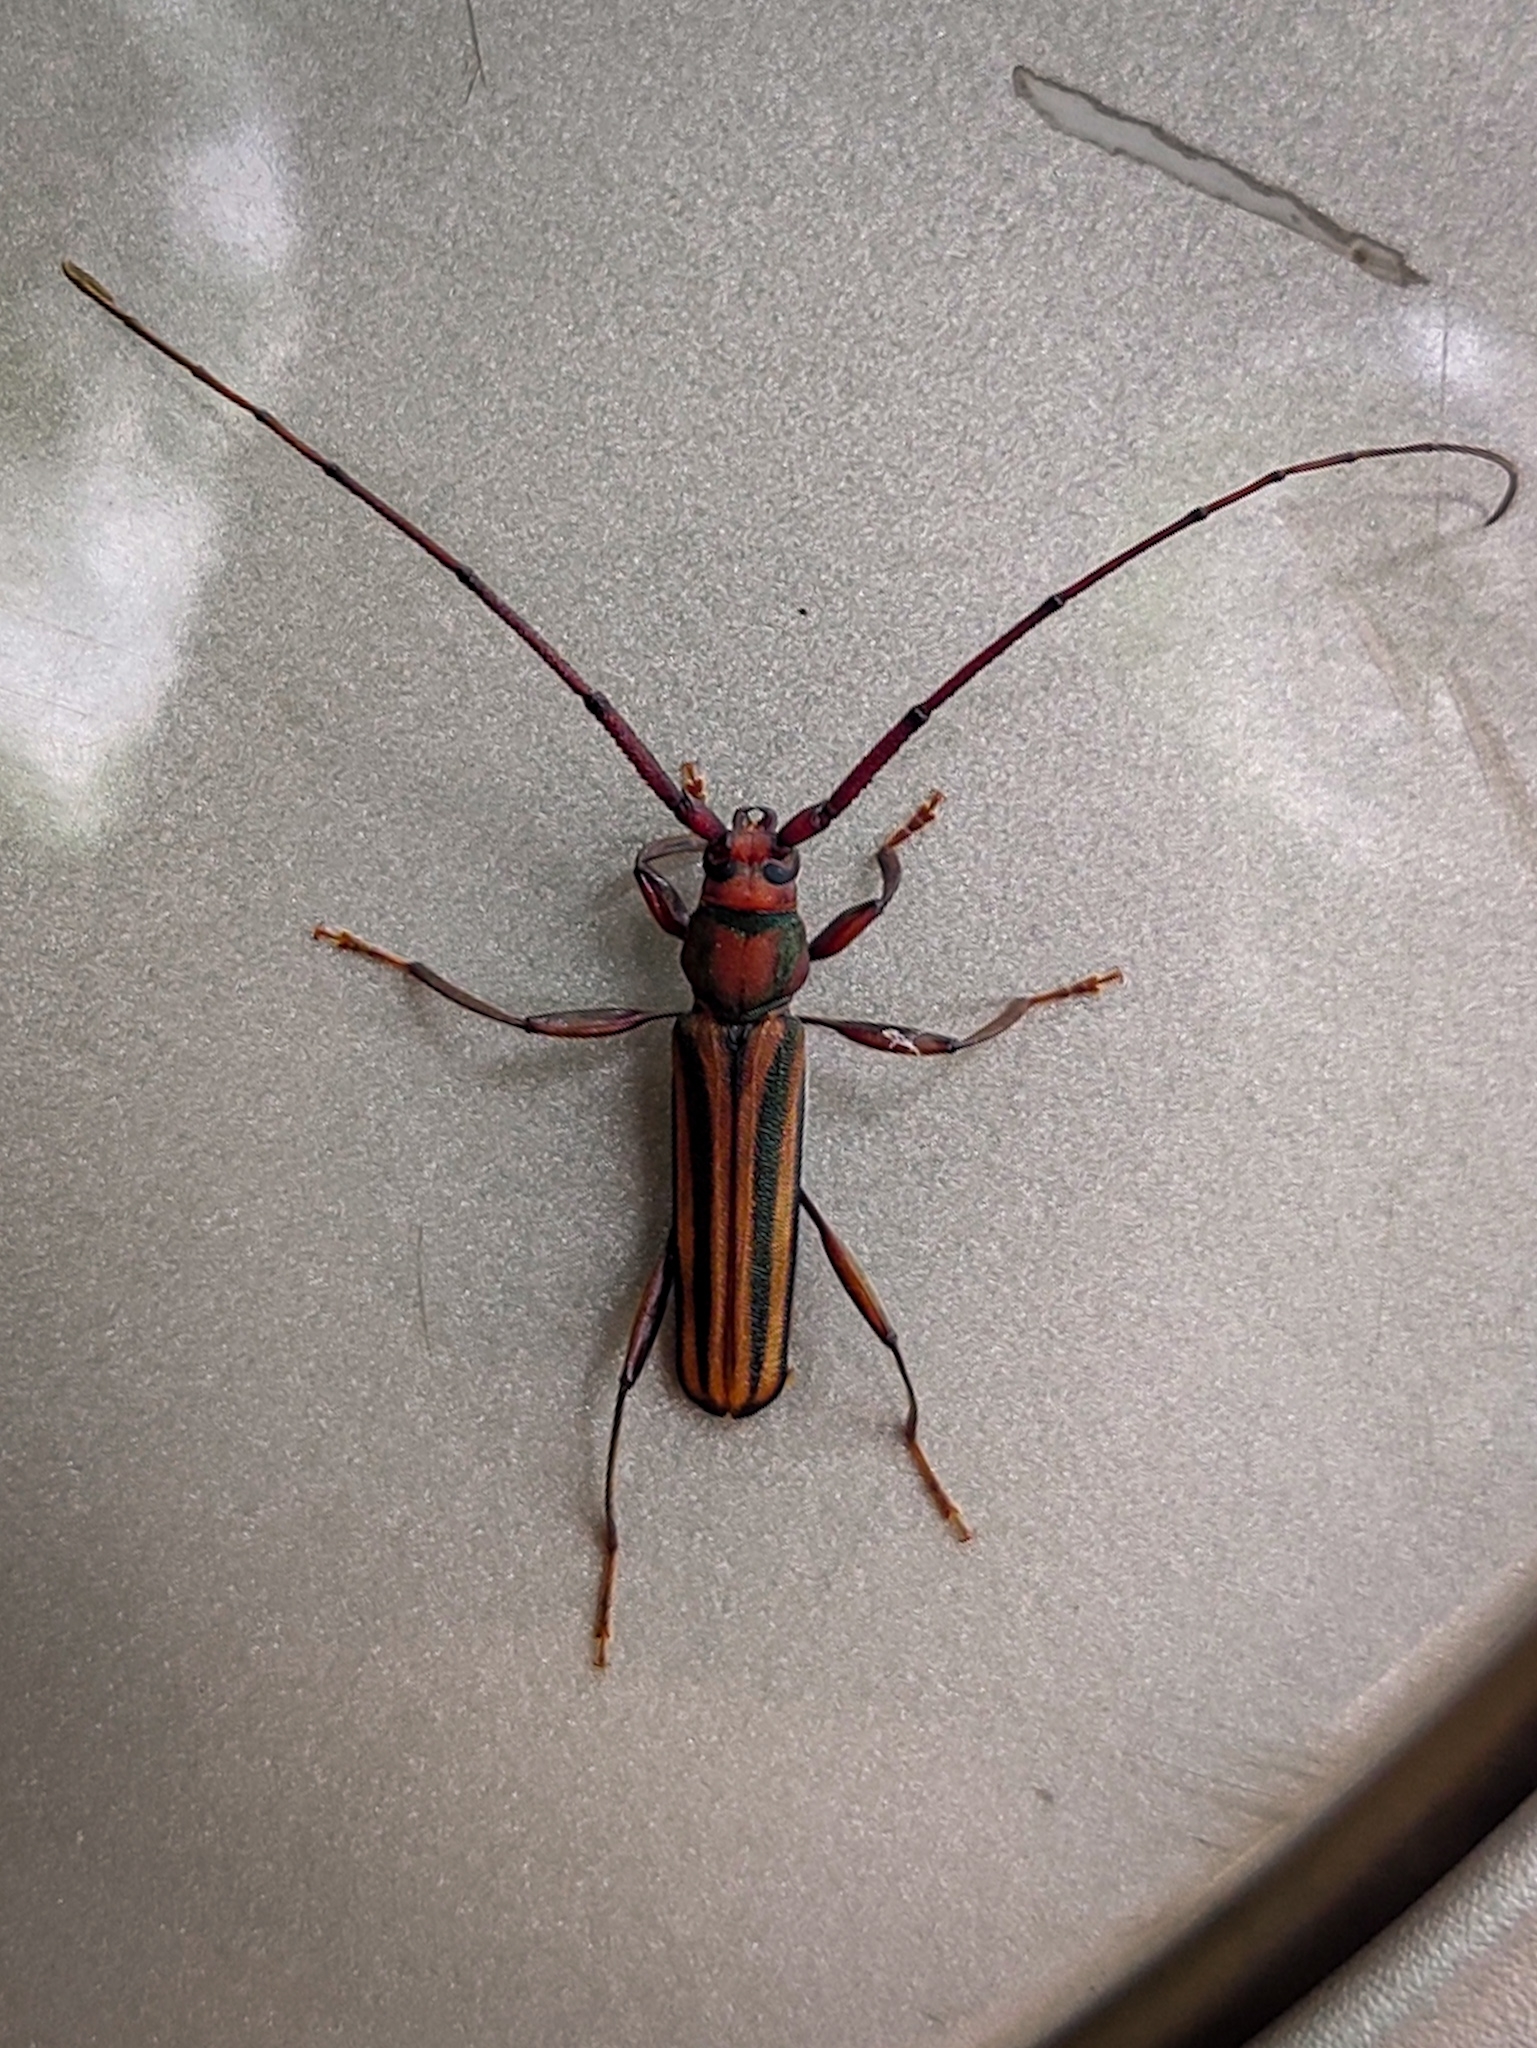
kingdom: Animalia
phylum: Arthropoda
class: Insecta
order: Coleoptera
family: Cerambycidae
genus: Xystrocera
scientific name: Xystrocera globosa
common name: Peach-tree longhorn
